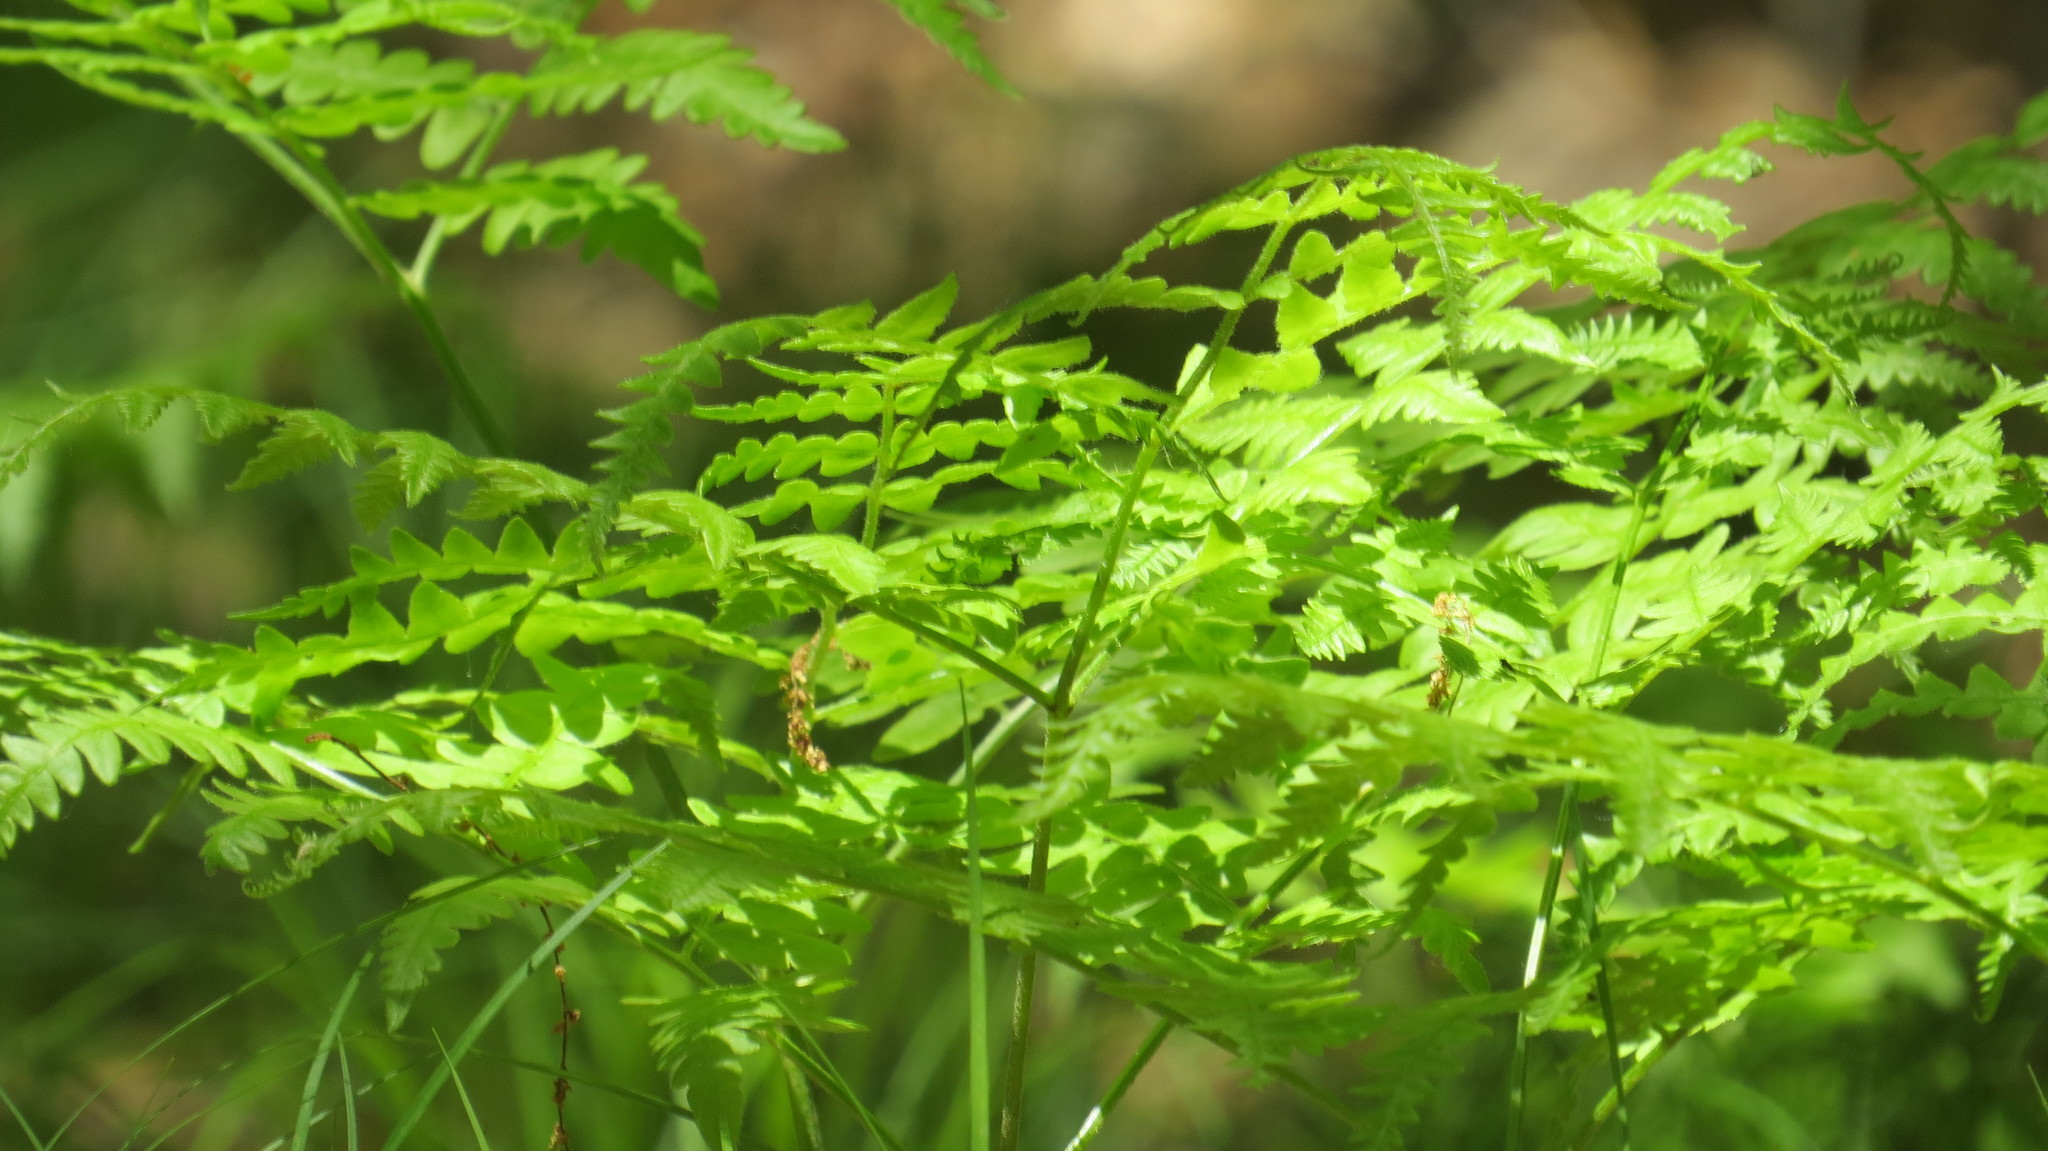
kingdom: Plantae
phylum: Tracheophyta
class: Polypodiopsida
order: Polypodiales
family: Dennstaedtiaceae
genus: Pteridium
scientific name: Pteridium aquilinum
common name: Bracken
